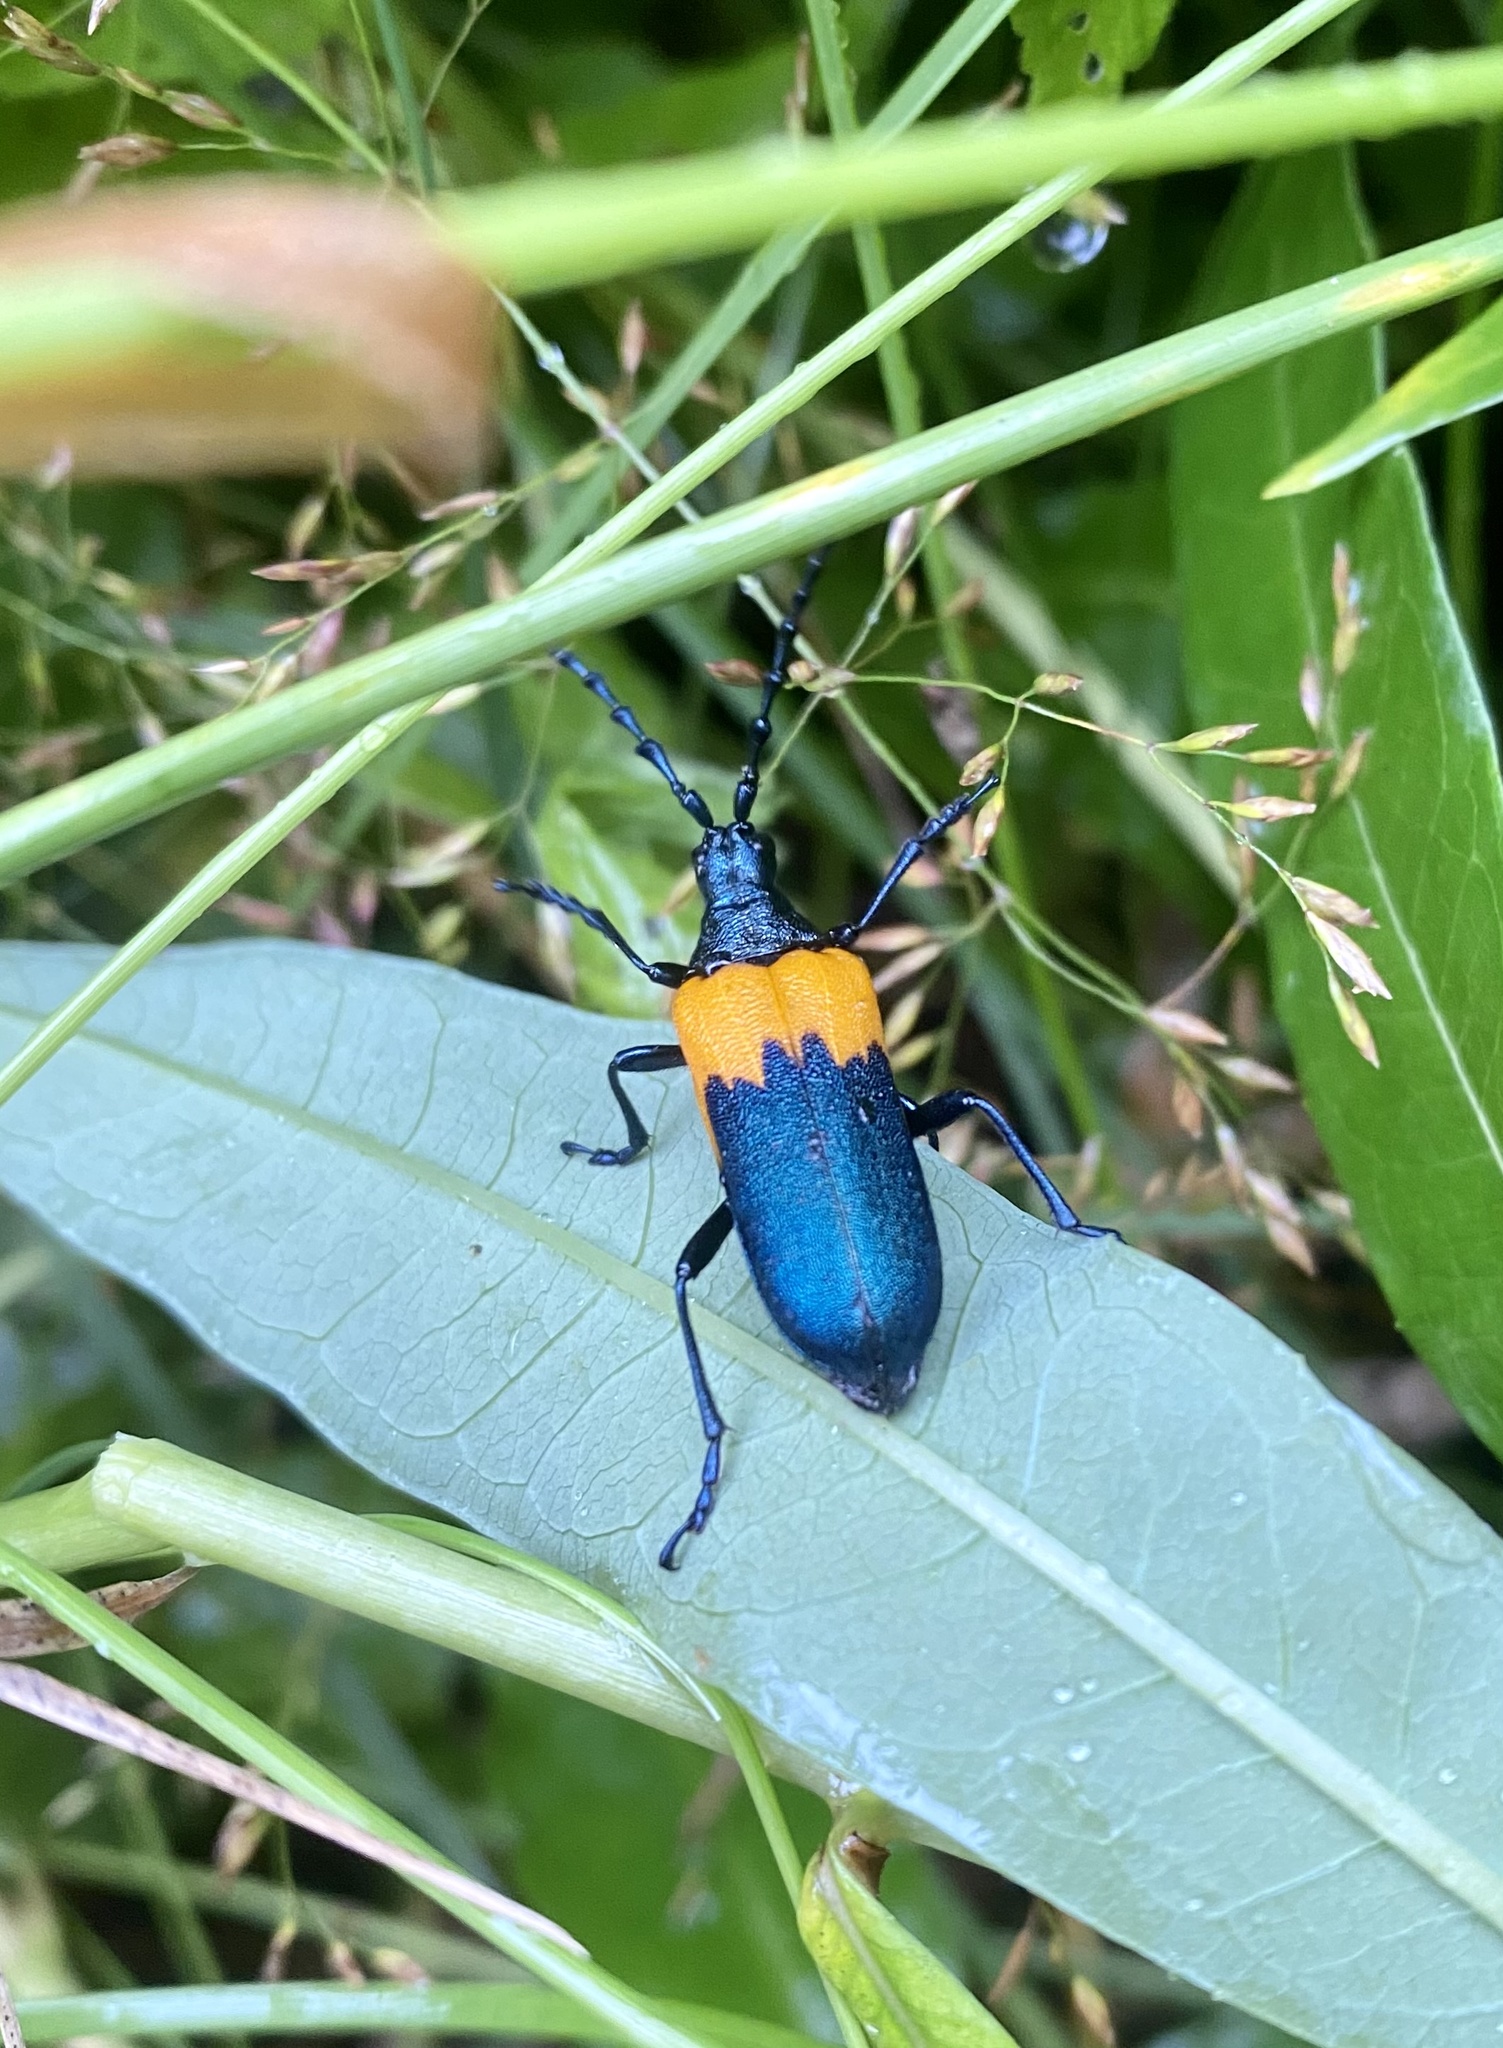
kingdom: Animalia
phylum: Arthropoda
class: Insecta
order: Coleoptera
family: Cerambycidae
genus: Desmocerus
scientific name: Desmocerus palliatus
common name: Eastern elderberry borer
